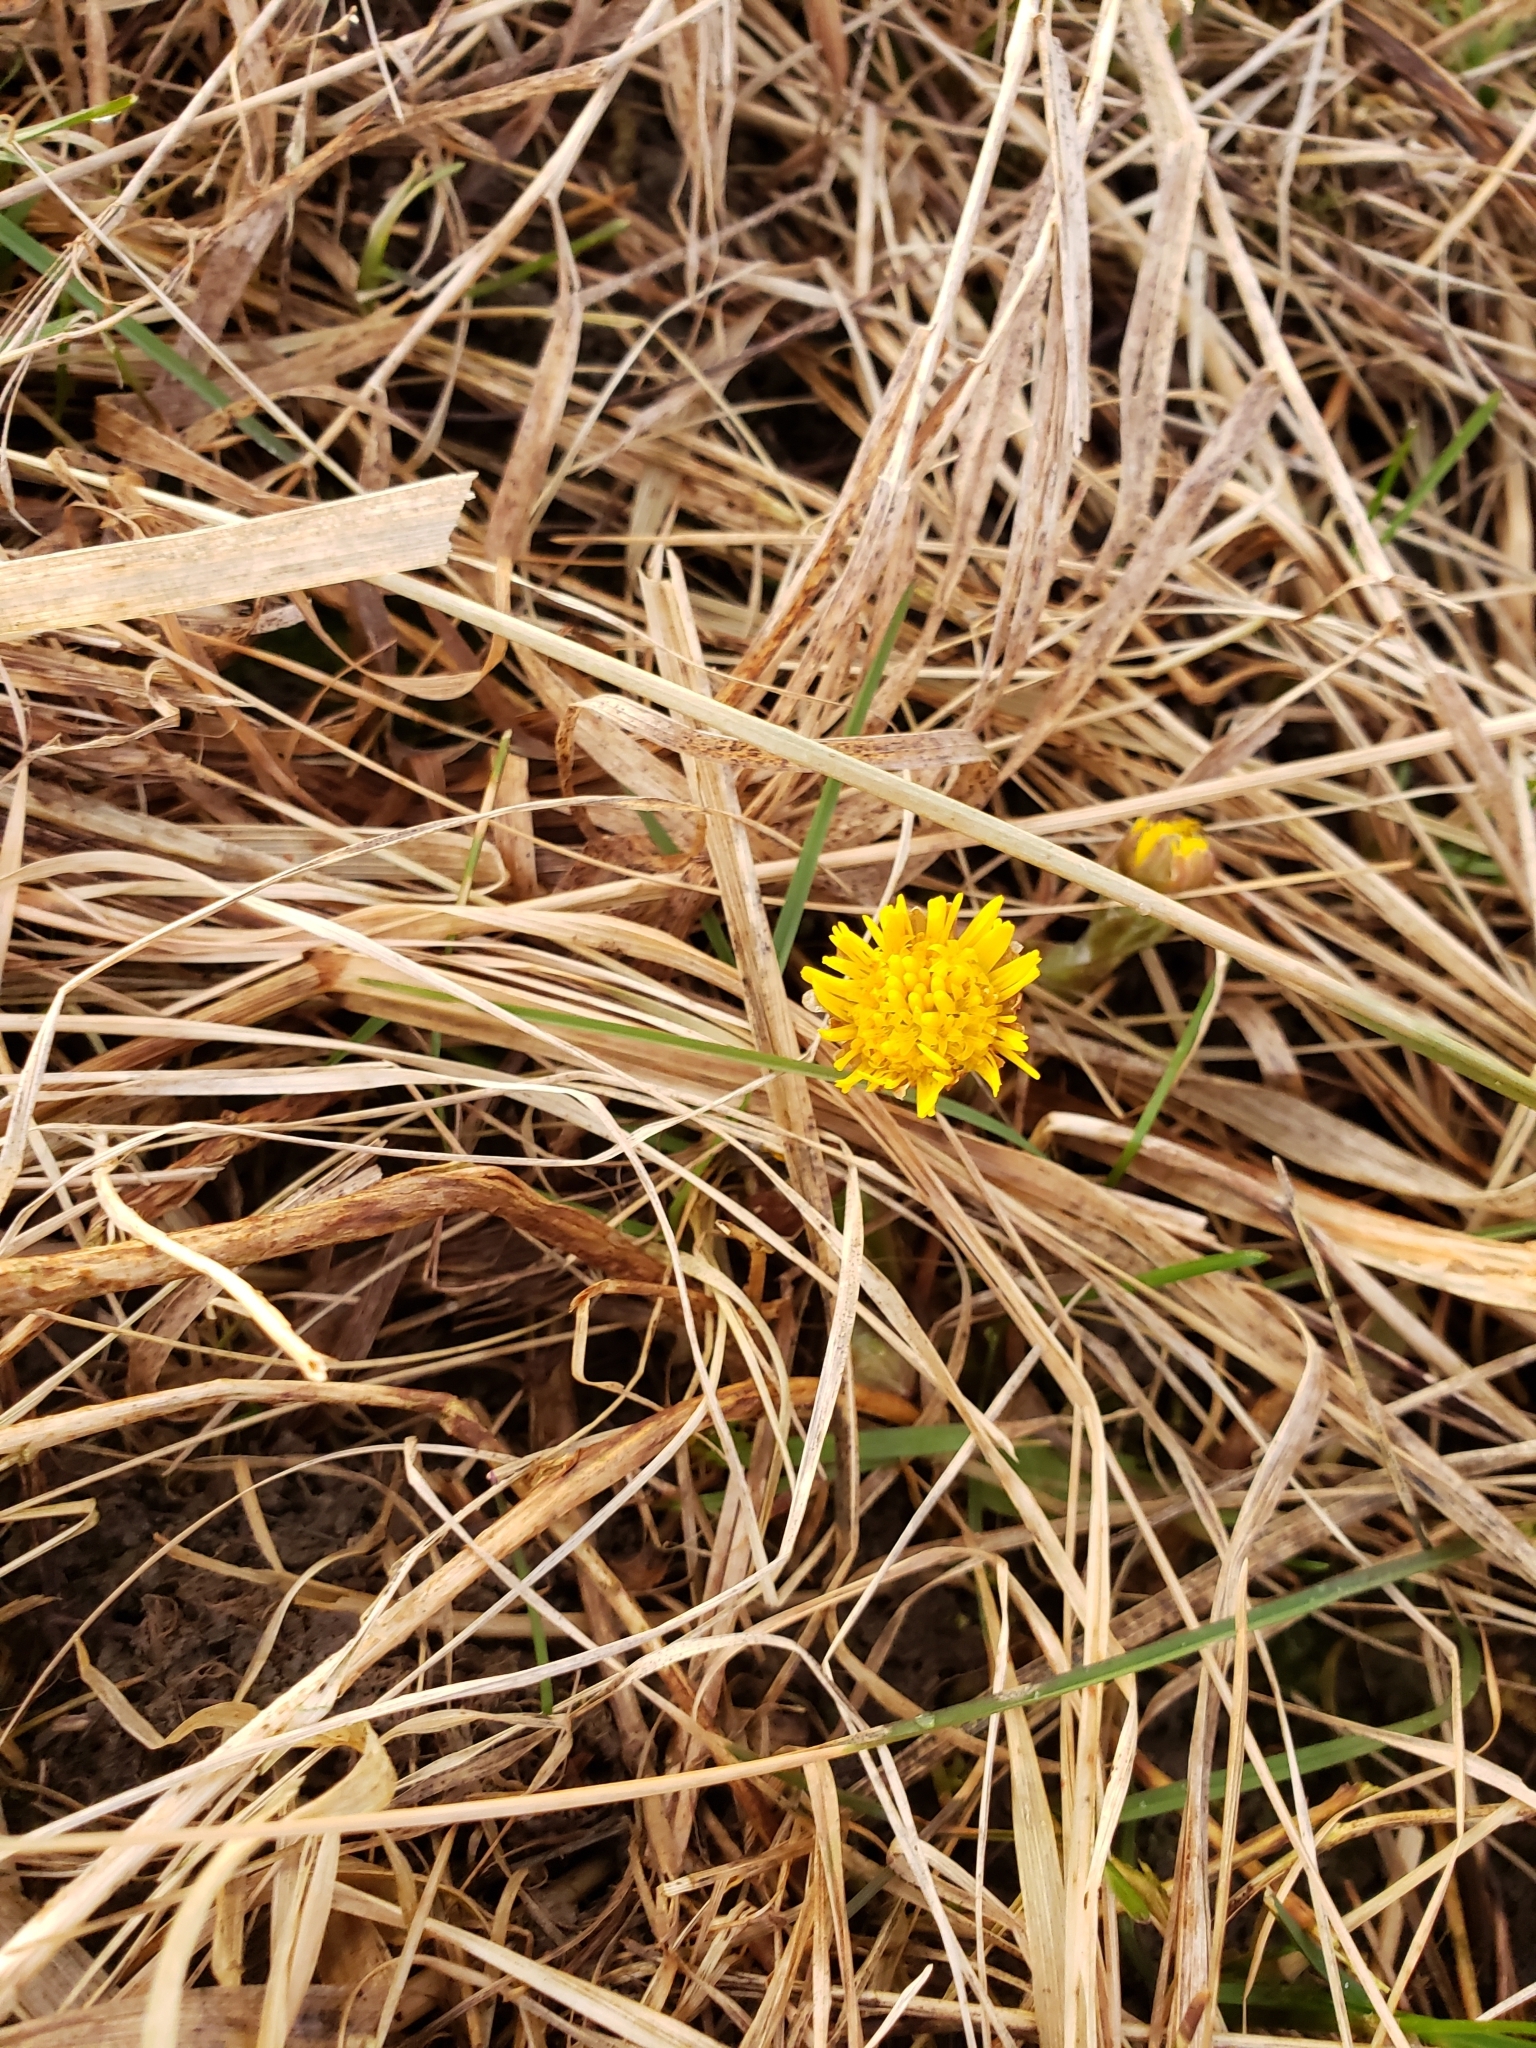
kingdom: Plantae
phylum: Tracheophyta
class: Magnoliopsida
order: Asterales
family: Asteraceae
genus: Tussilago
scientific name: Tussilago farfara
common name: Coltsfoot
